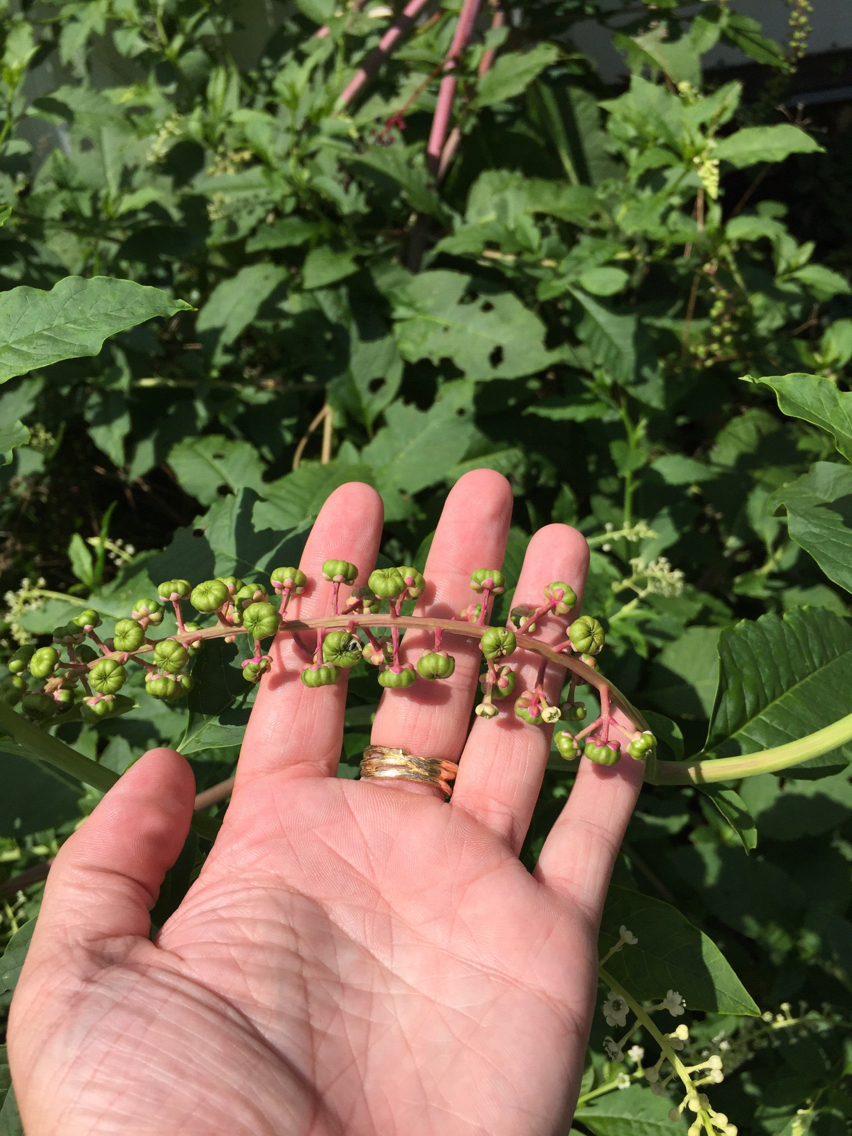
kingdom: Plantae
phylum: Tracheophyta
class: Magnoliopsida
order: Caryophyllales
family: Phytolaccaceae
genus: Phytolacca
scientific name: Phytolacca americana
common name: American pokeweed
